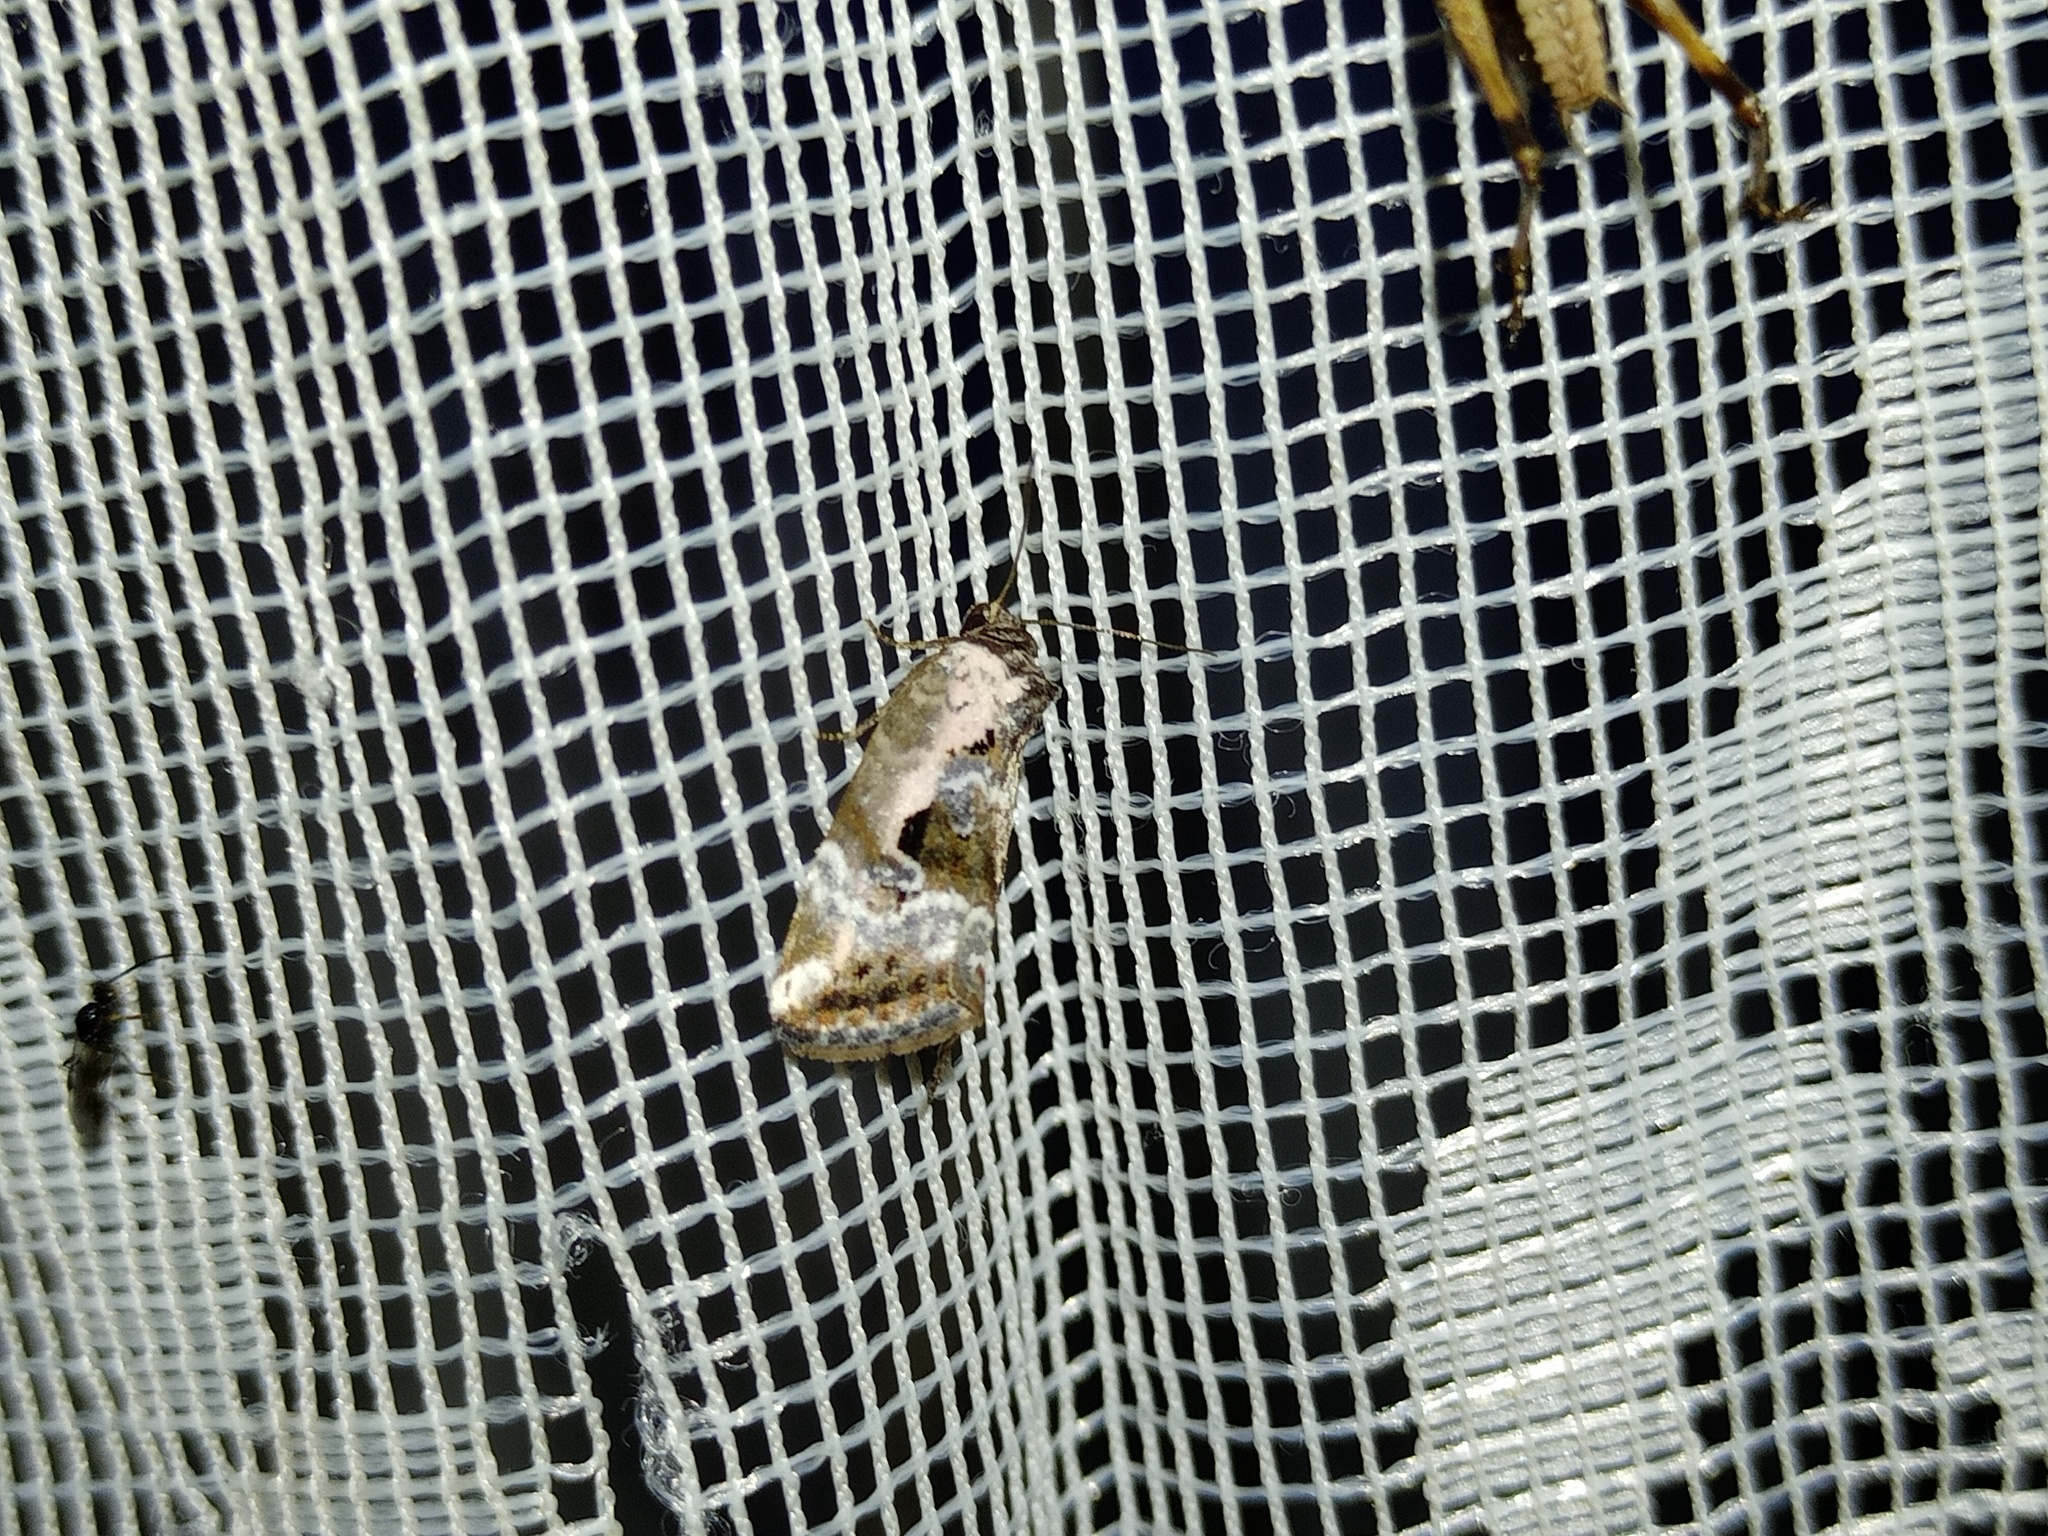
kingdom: Animalia
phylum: Arthropoda
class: Insecta
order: Lepidoptera
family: Noctuidae
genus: Elaphria
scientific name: Elaphria venustula
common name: Rosy marbled
